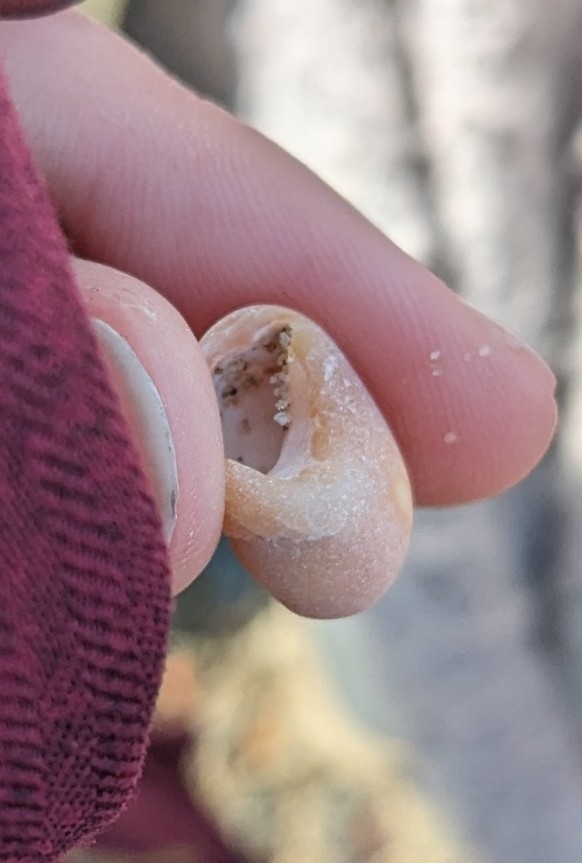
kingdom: Animalia
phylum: Mollusca
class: Gastropoda
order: Littorinimorpha
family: Littorinidae
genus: Littorina
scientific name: Littorina obtusata
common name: Flat periwinkle
